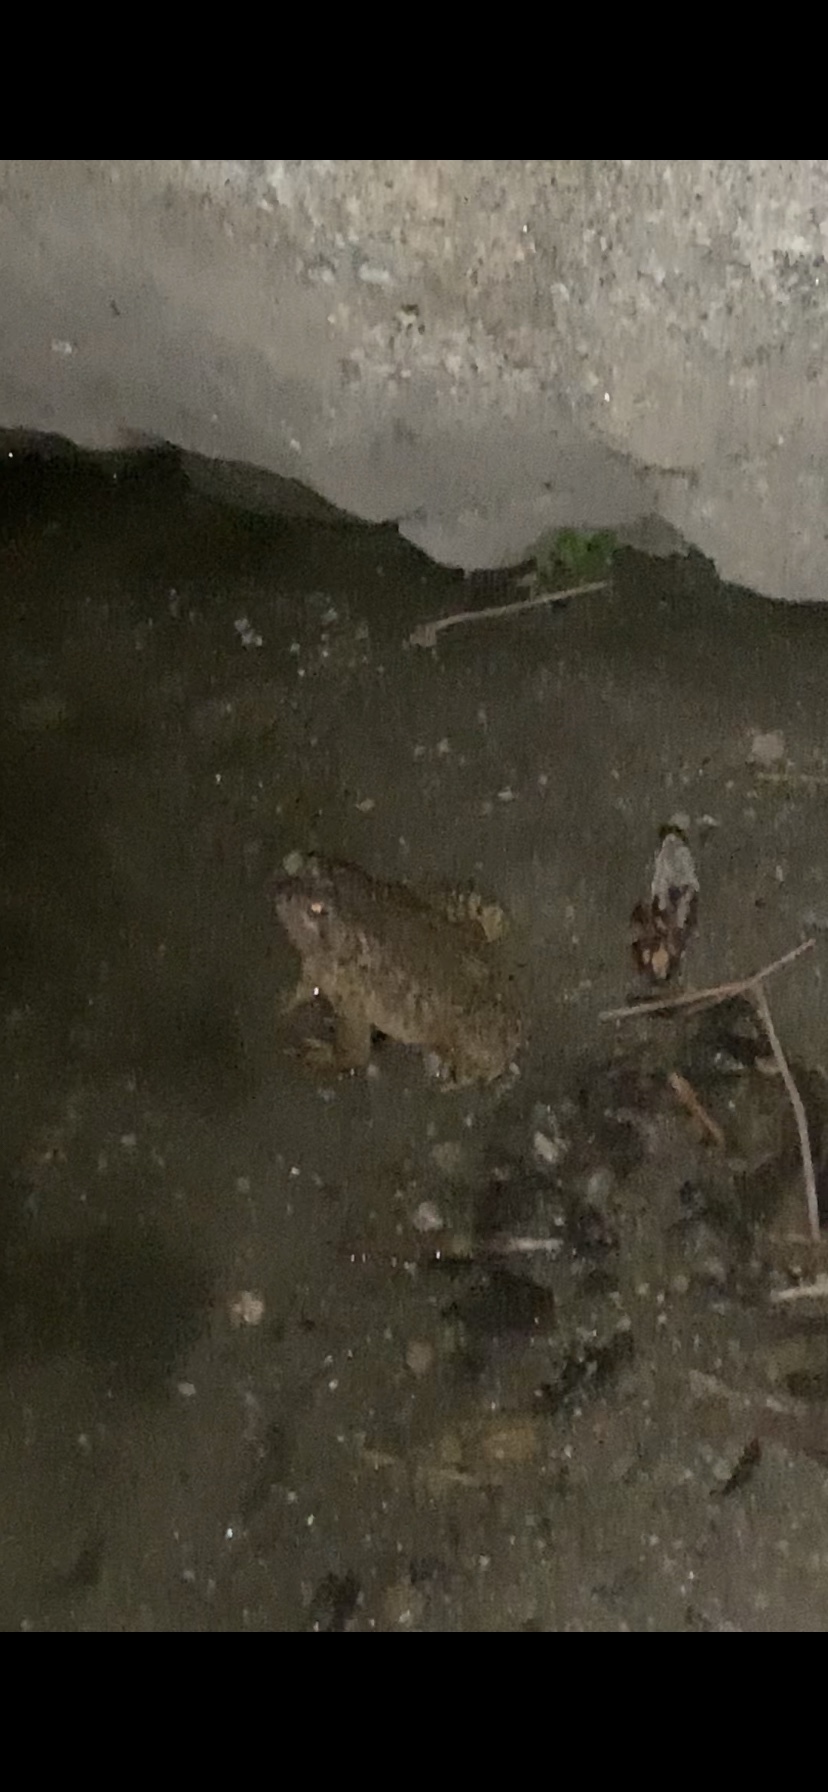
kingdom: Animalia
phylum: Chordata
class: Amphibia
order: Anura
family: Bufonidae
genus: Anaxyrus
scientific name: Anaxyrus woodhousii
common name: Woodhouse's toad
